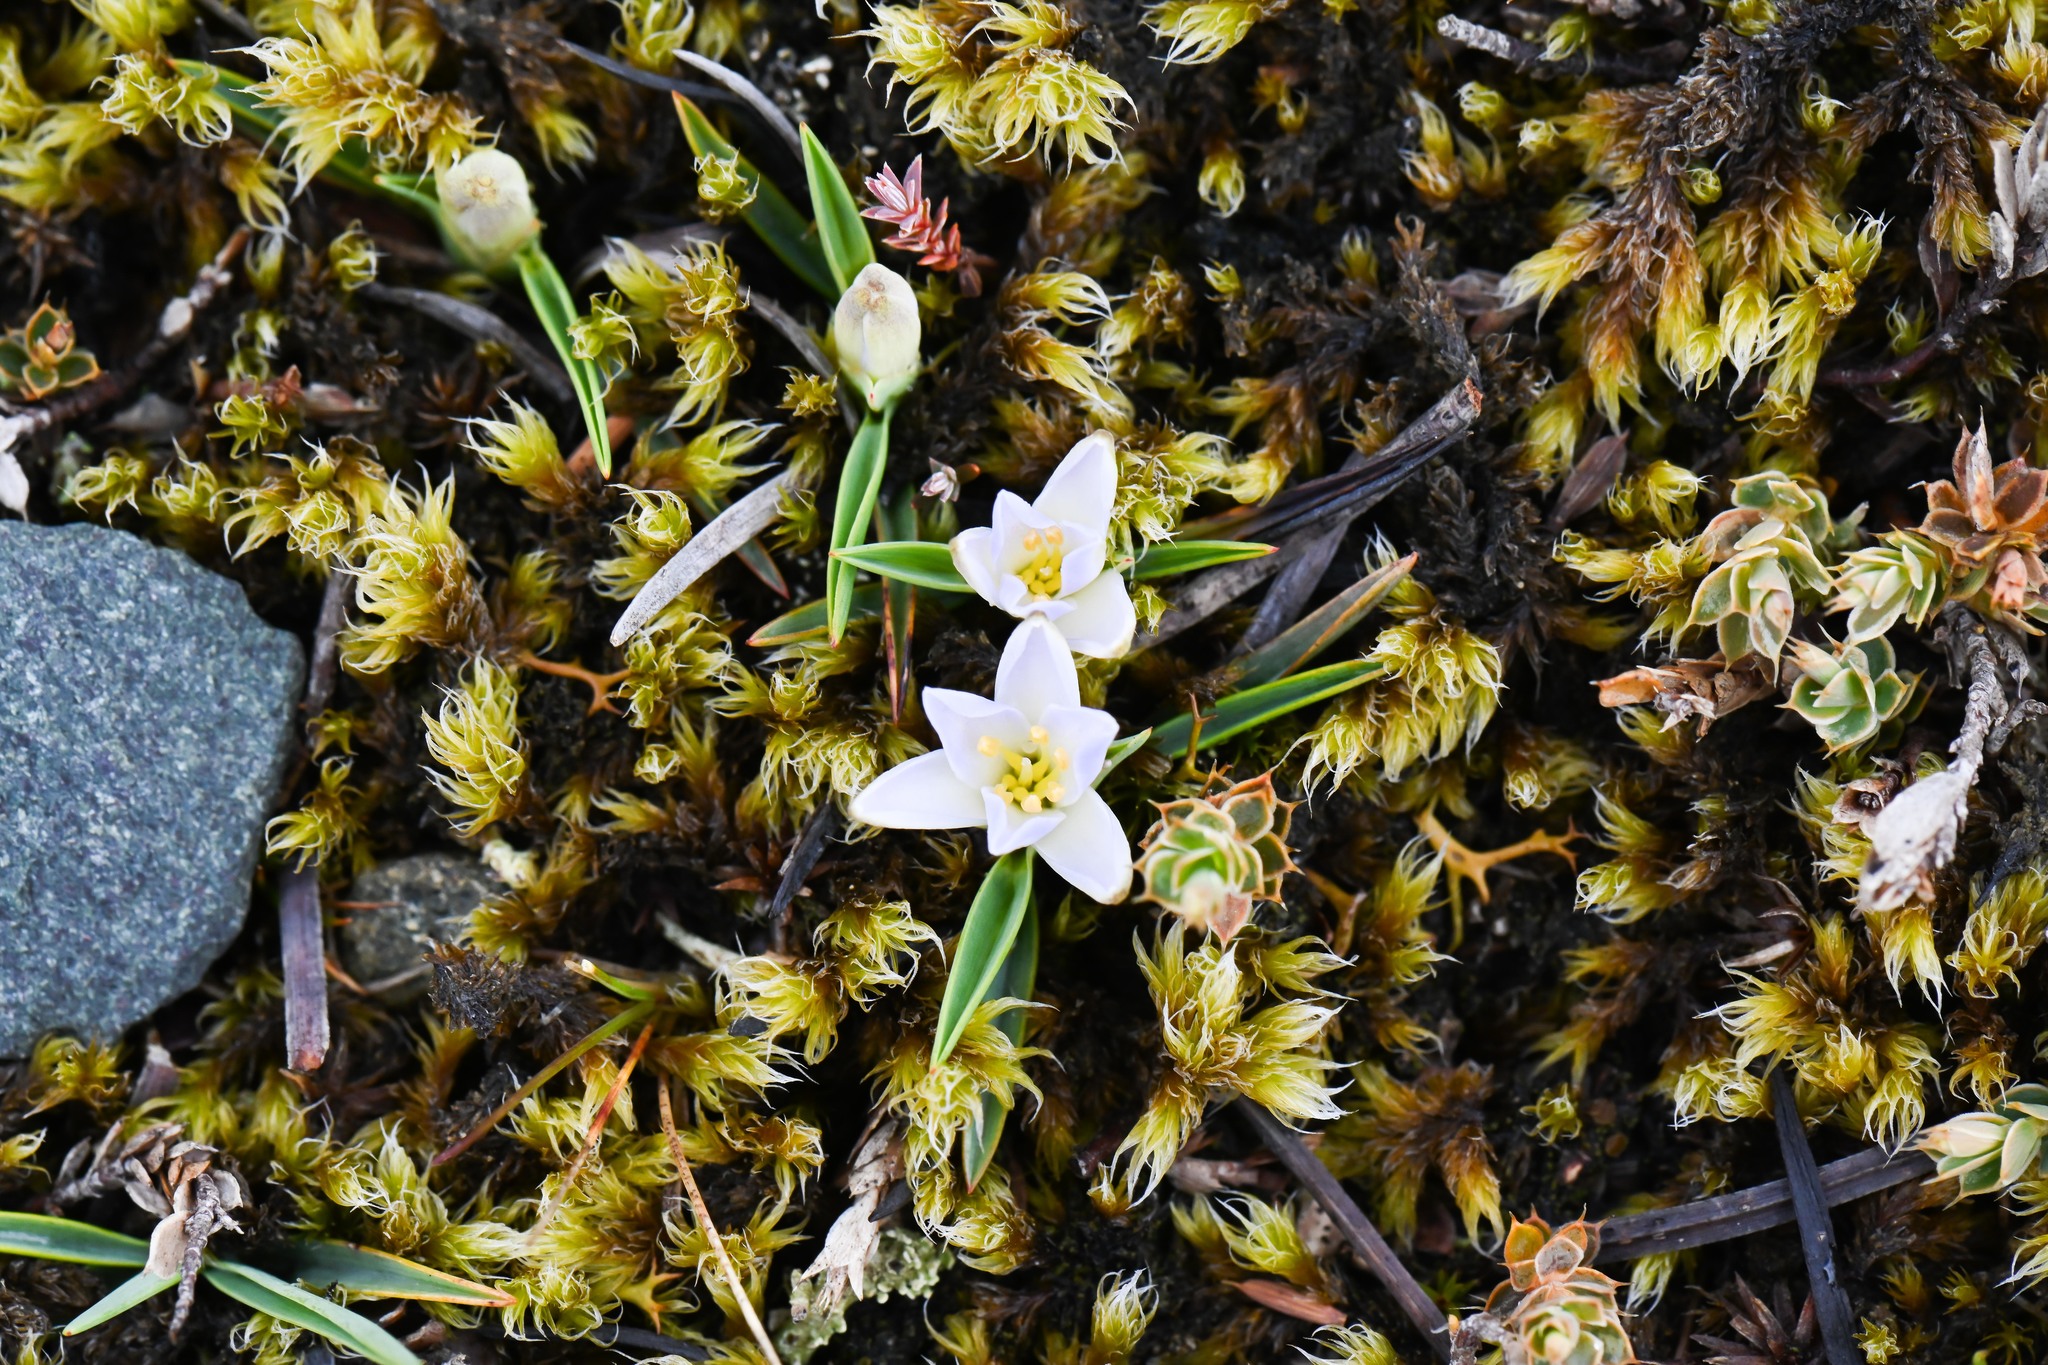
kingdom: Plantae
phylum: Tracheophyta
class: Liliopsida
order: Asparagales
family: Asphodelaceae
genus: Herpolirion
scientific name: Herpolirion novae-zelandiae
